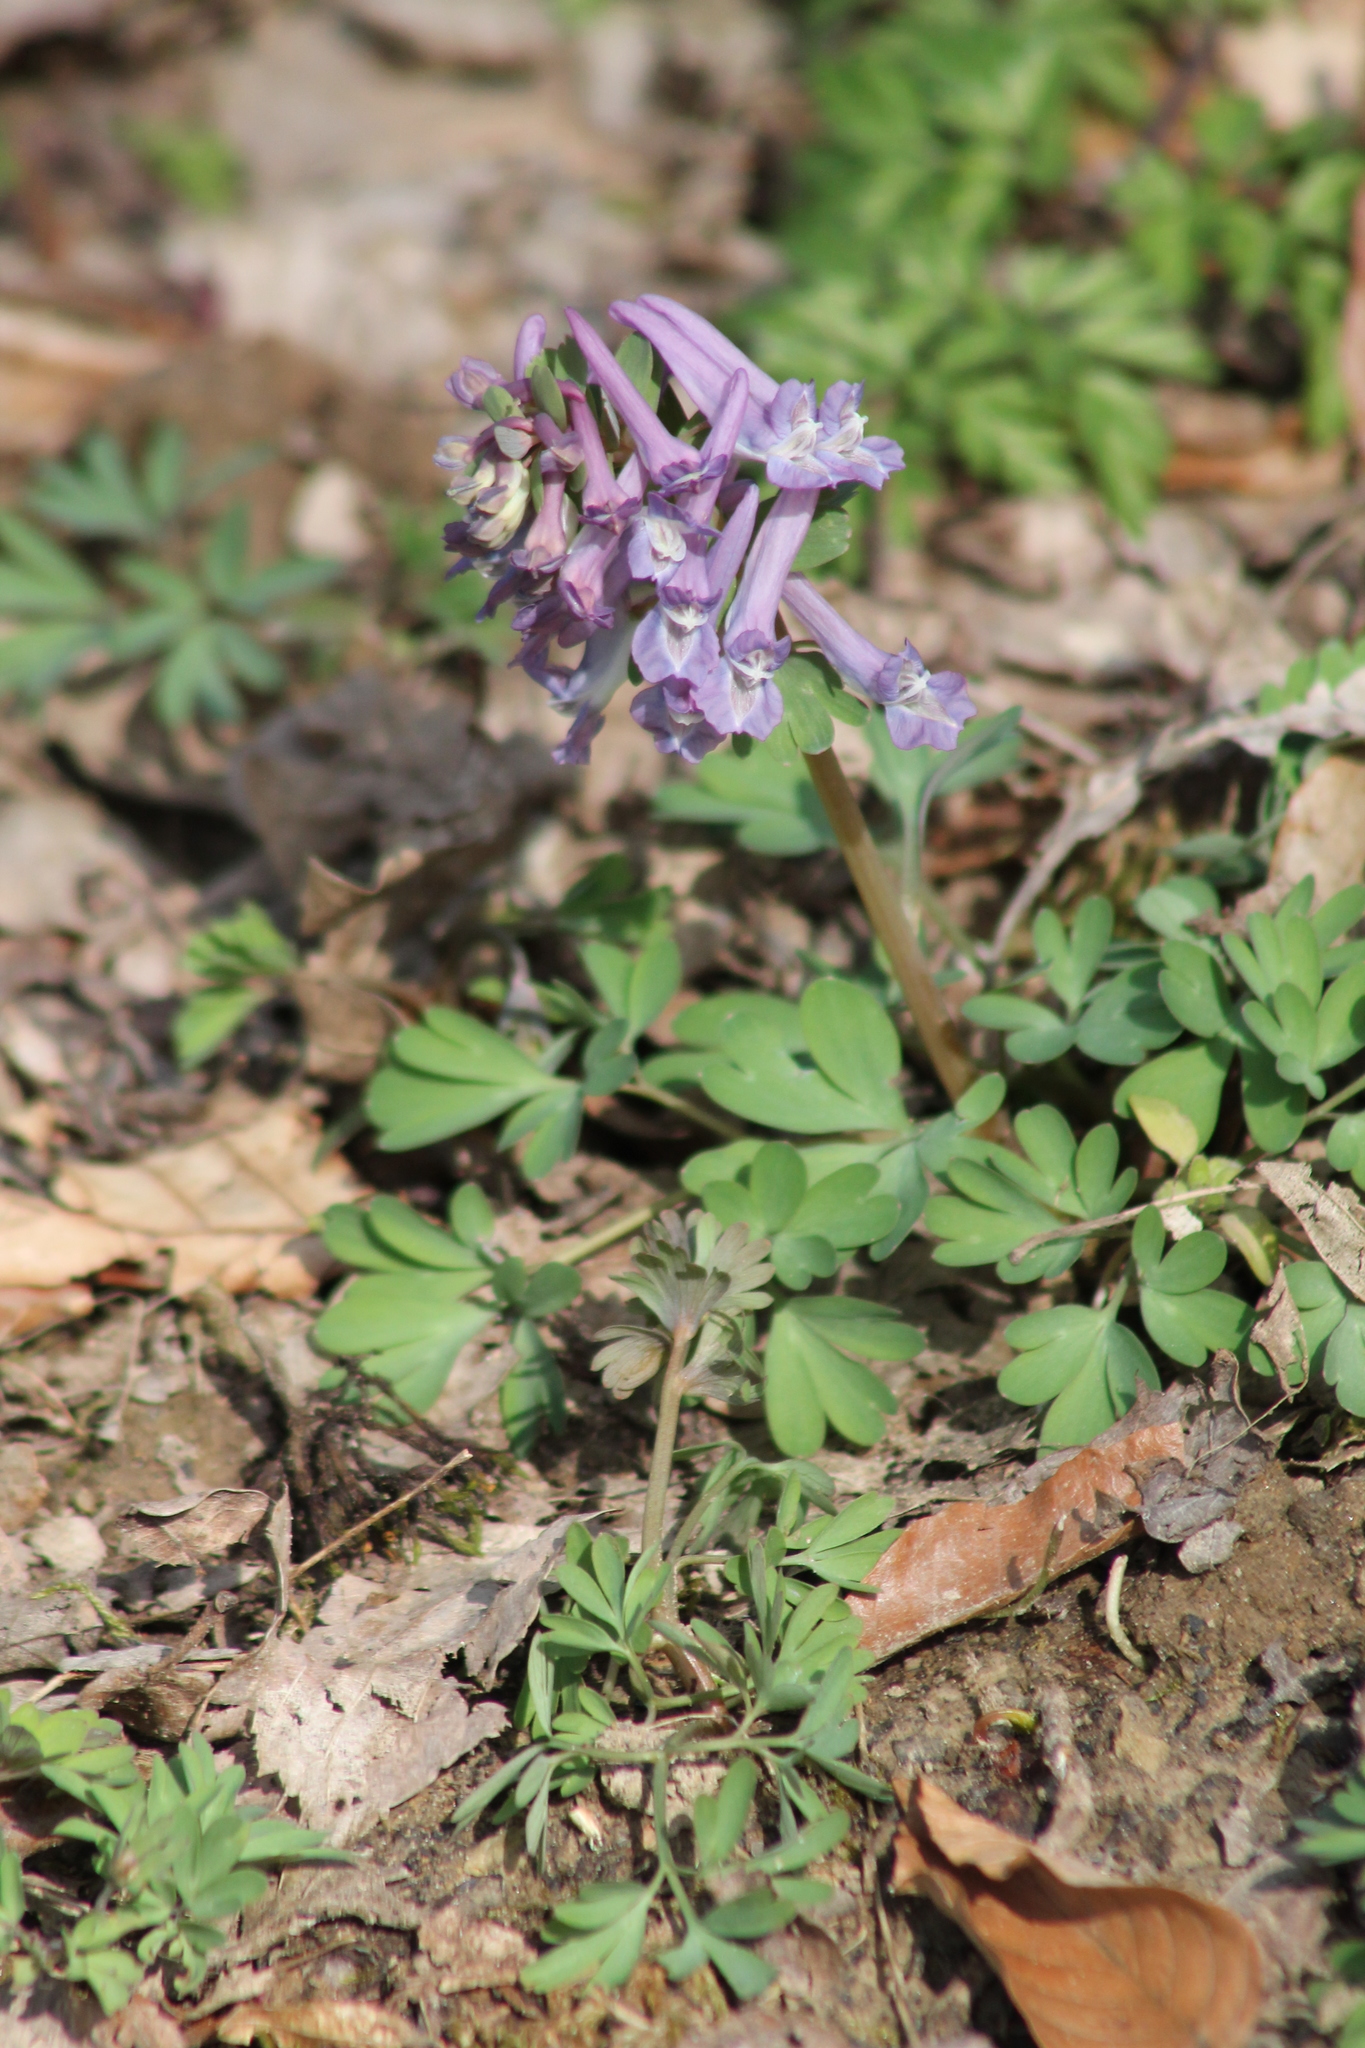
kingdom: Plantae
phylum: Tracheophyta
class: Magnoliopsida
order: Ranunculales
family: Papaveraceae
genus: Corydalis
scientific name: Corydalis solida
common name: Bird-in-a-bush
